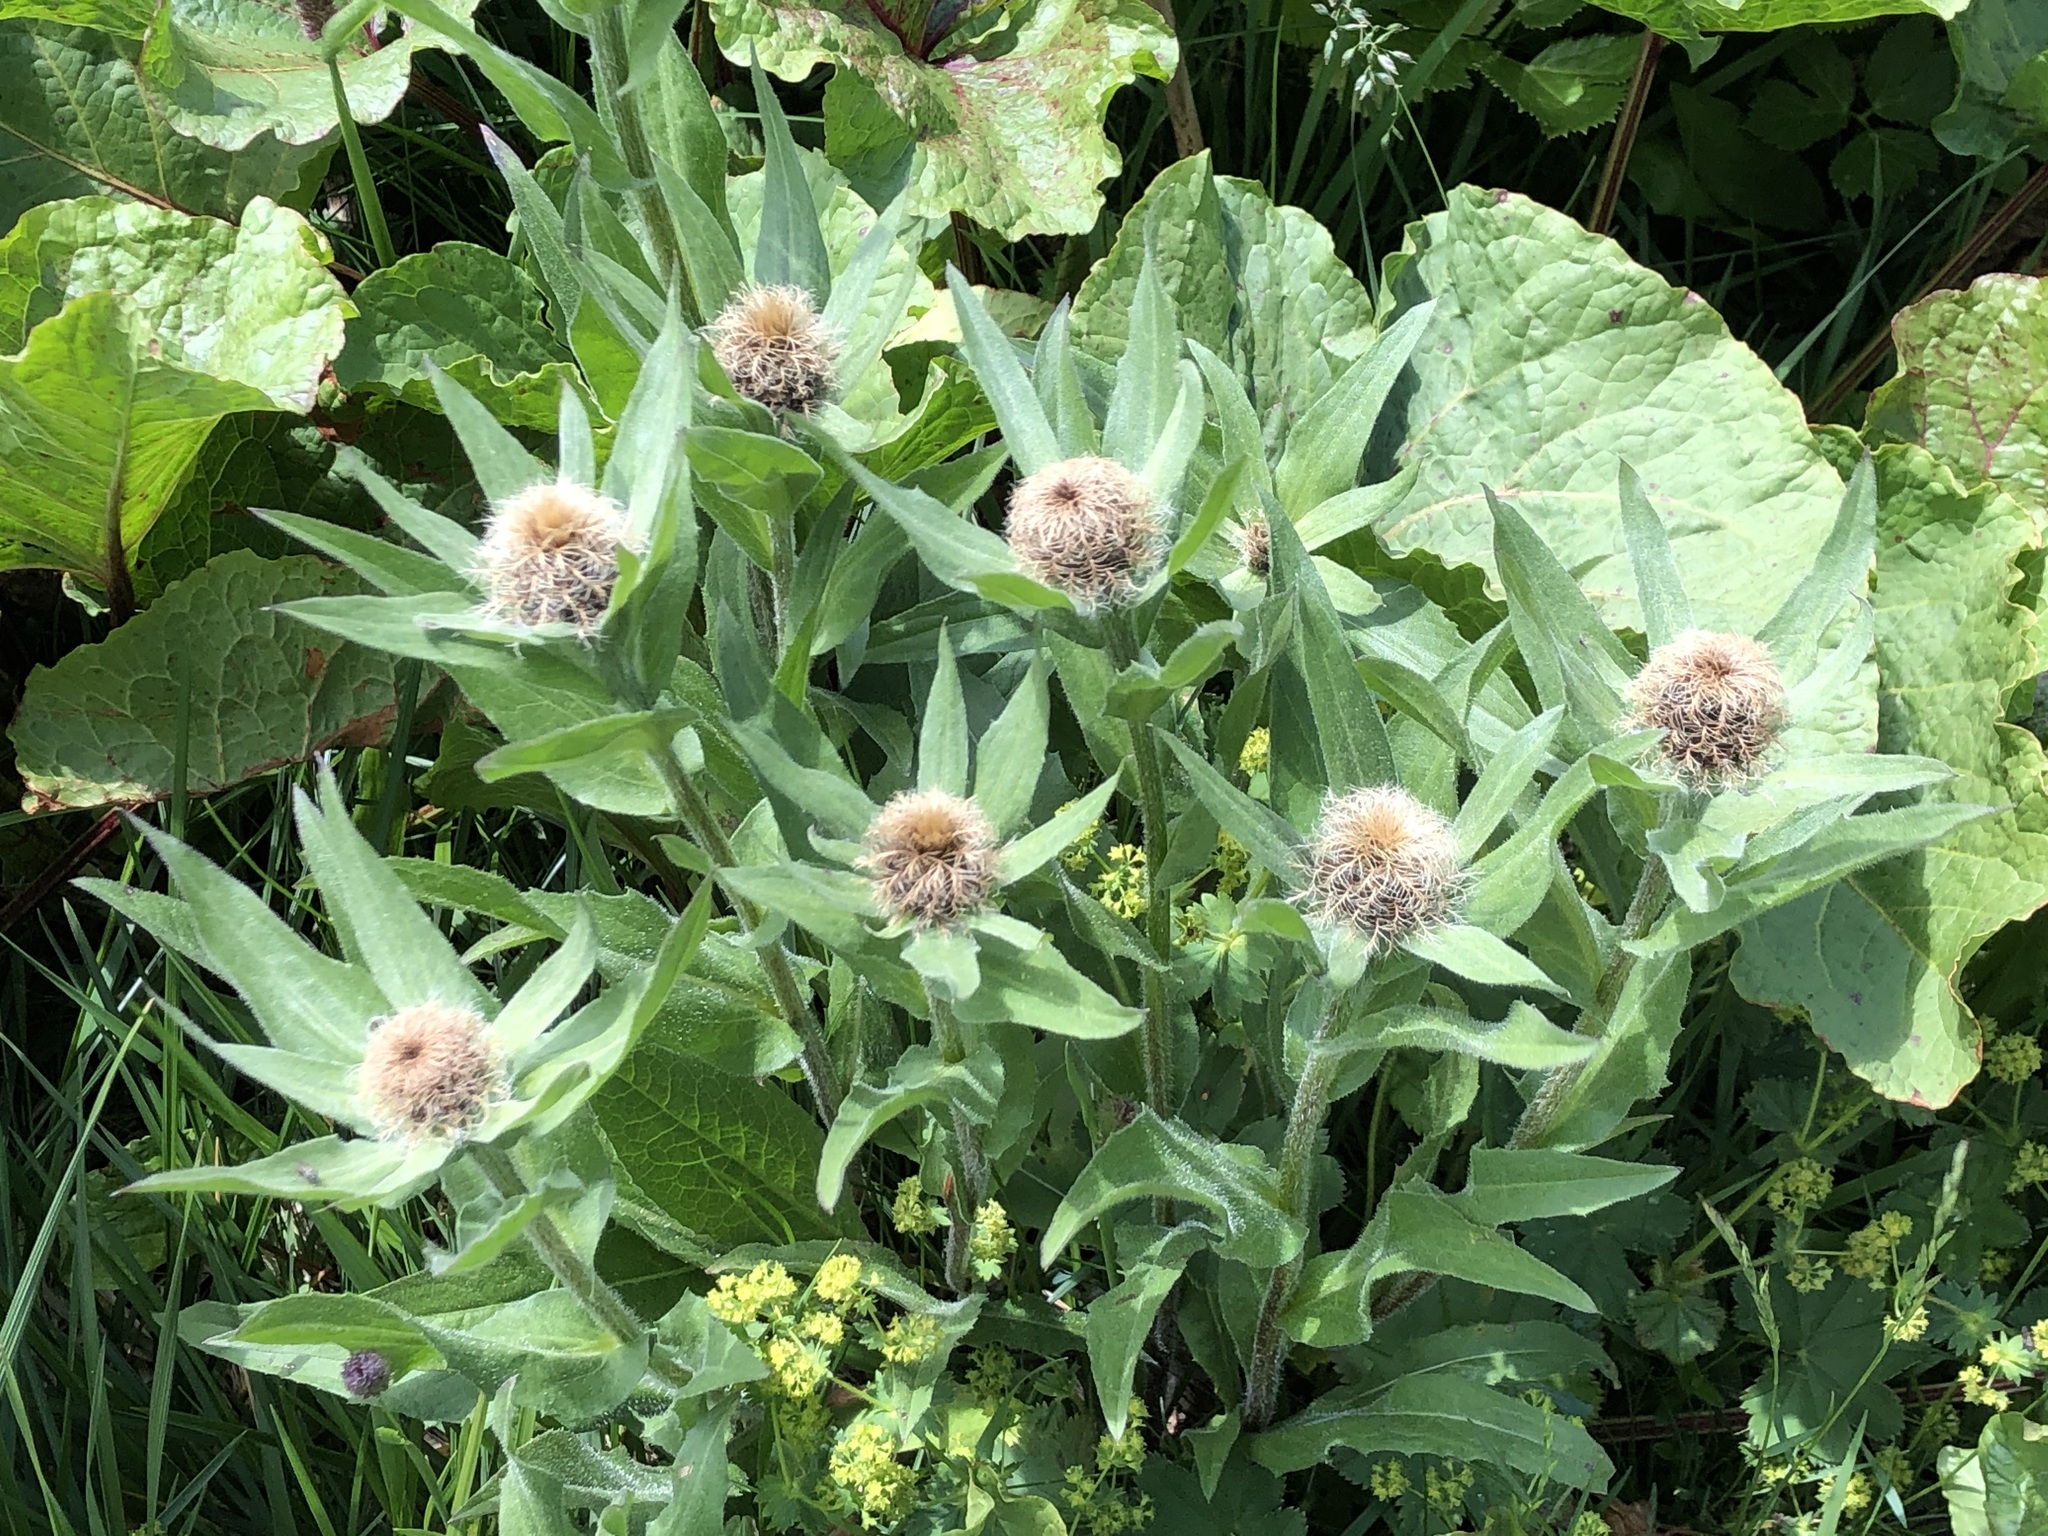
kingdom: Plantae
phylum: Tracheophyta
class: Magnoliopsida
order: Asterales
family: Asteraceae
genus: Centaurea
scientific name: Centaurea nervosa
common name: Singleflower knapweed
